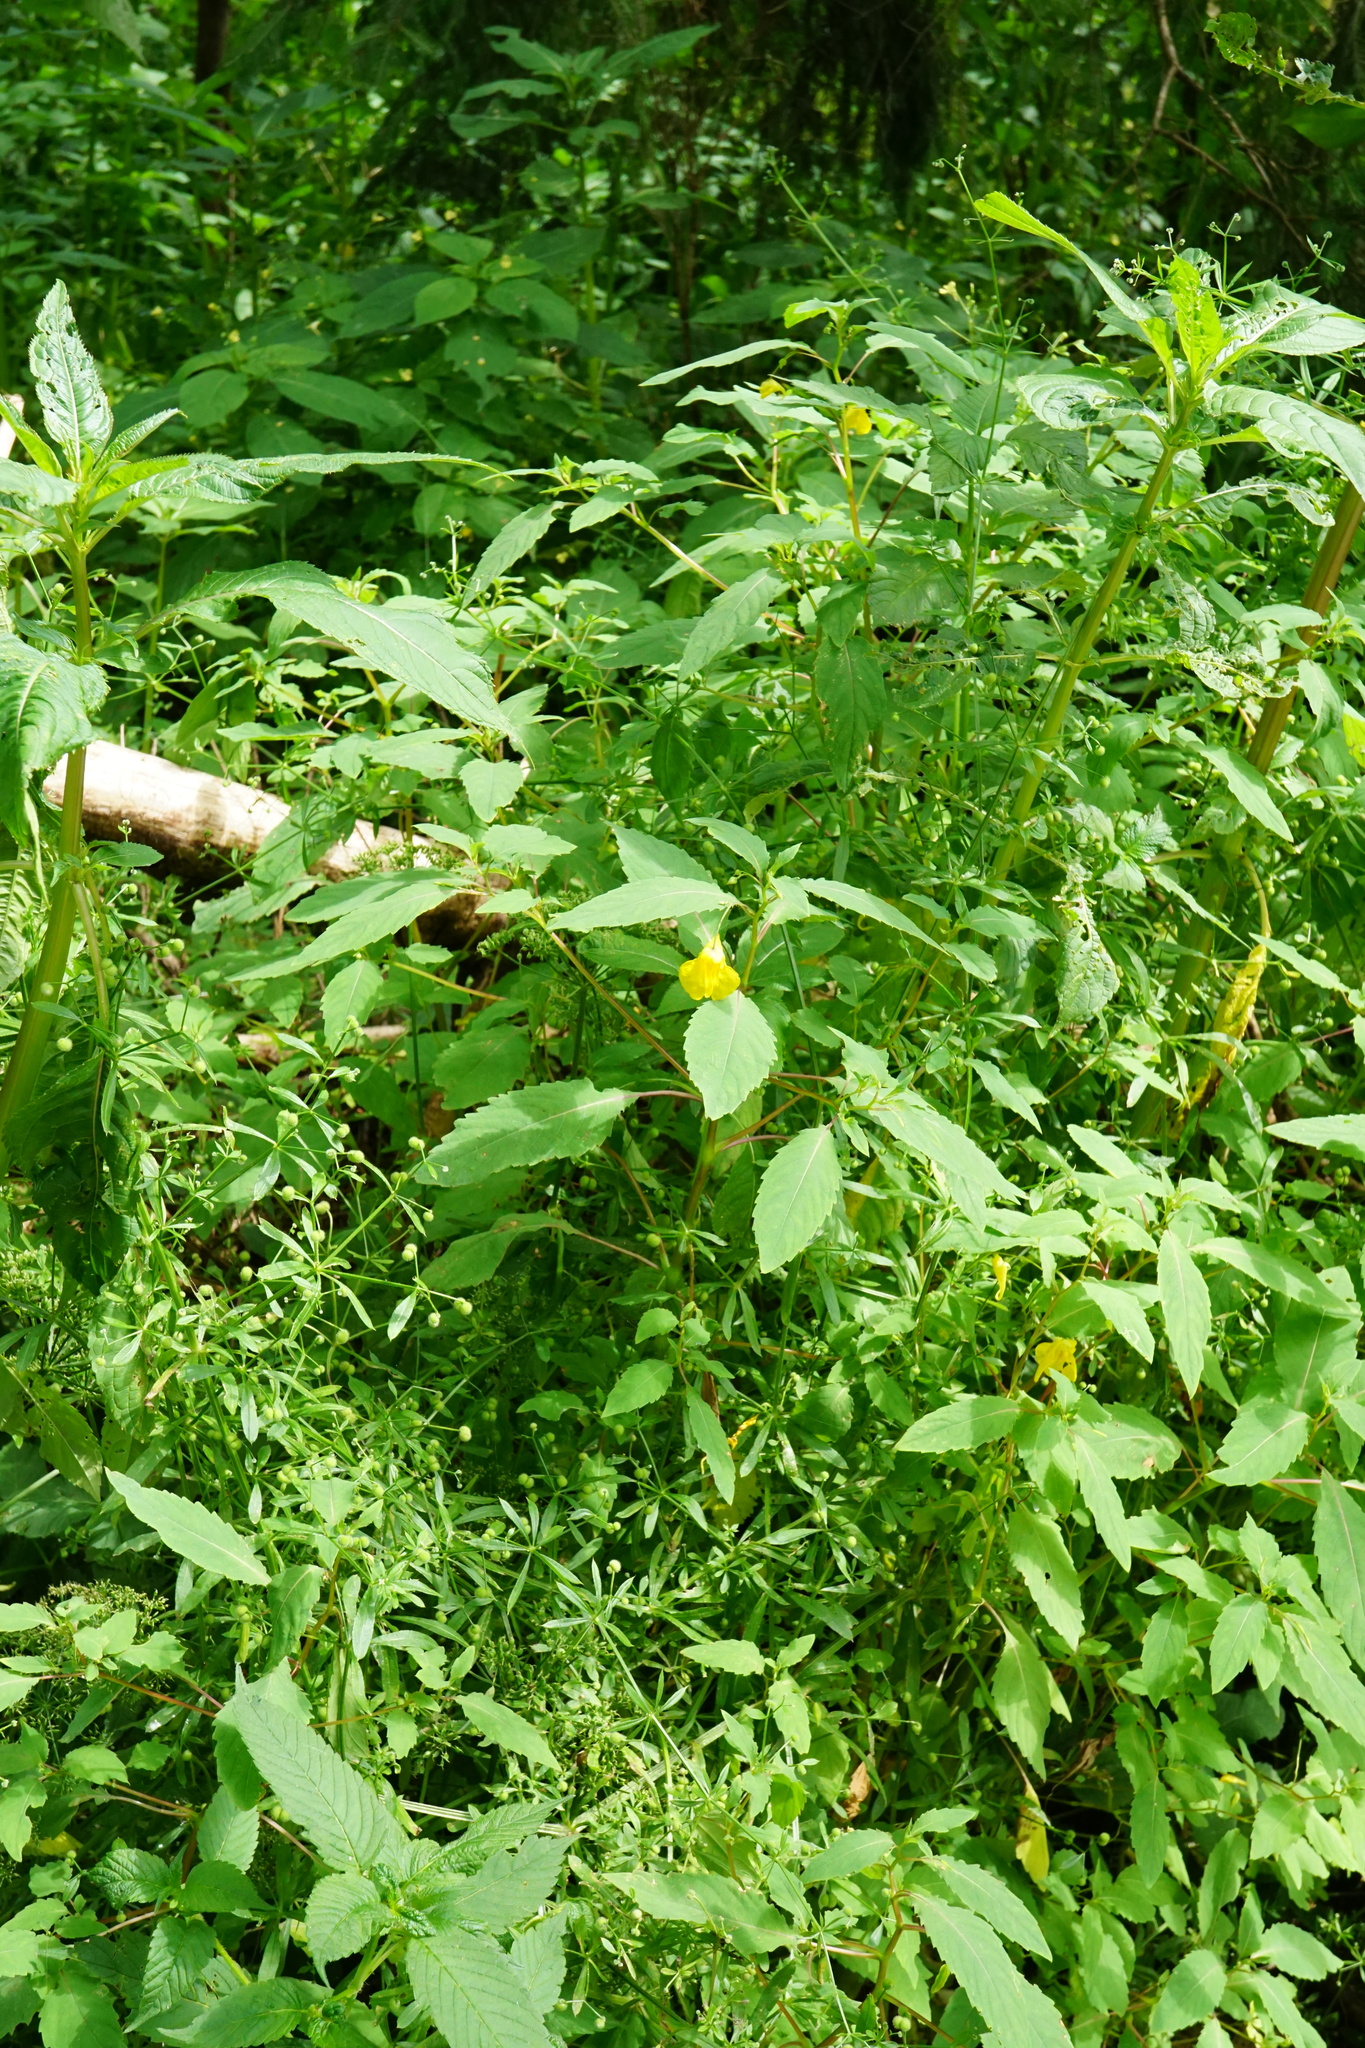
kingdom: Plantae
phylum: Tracheophyta
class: Magnoliopsida
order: Ericales
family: Balsaminaceae
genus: Impatiens
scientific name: Impatiens noli-tangere
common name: Touch-me-not balsam
